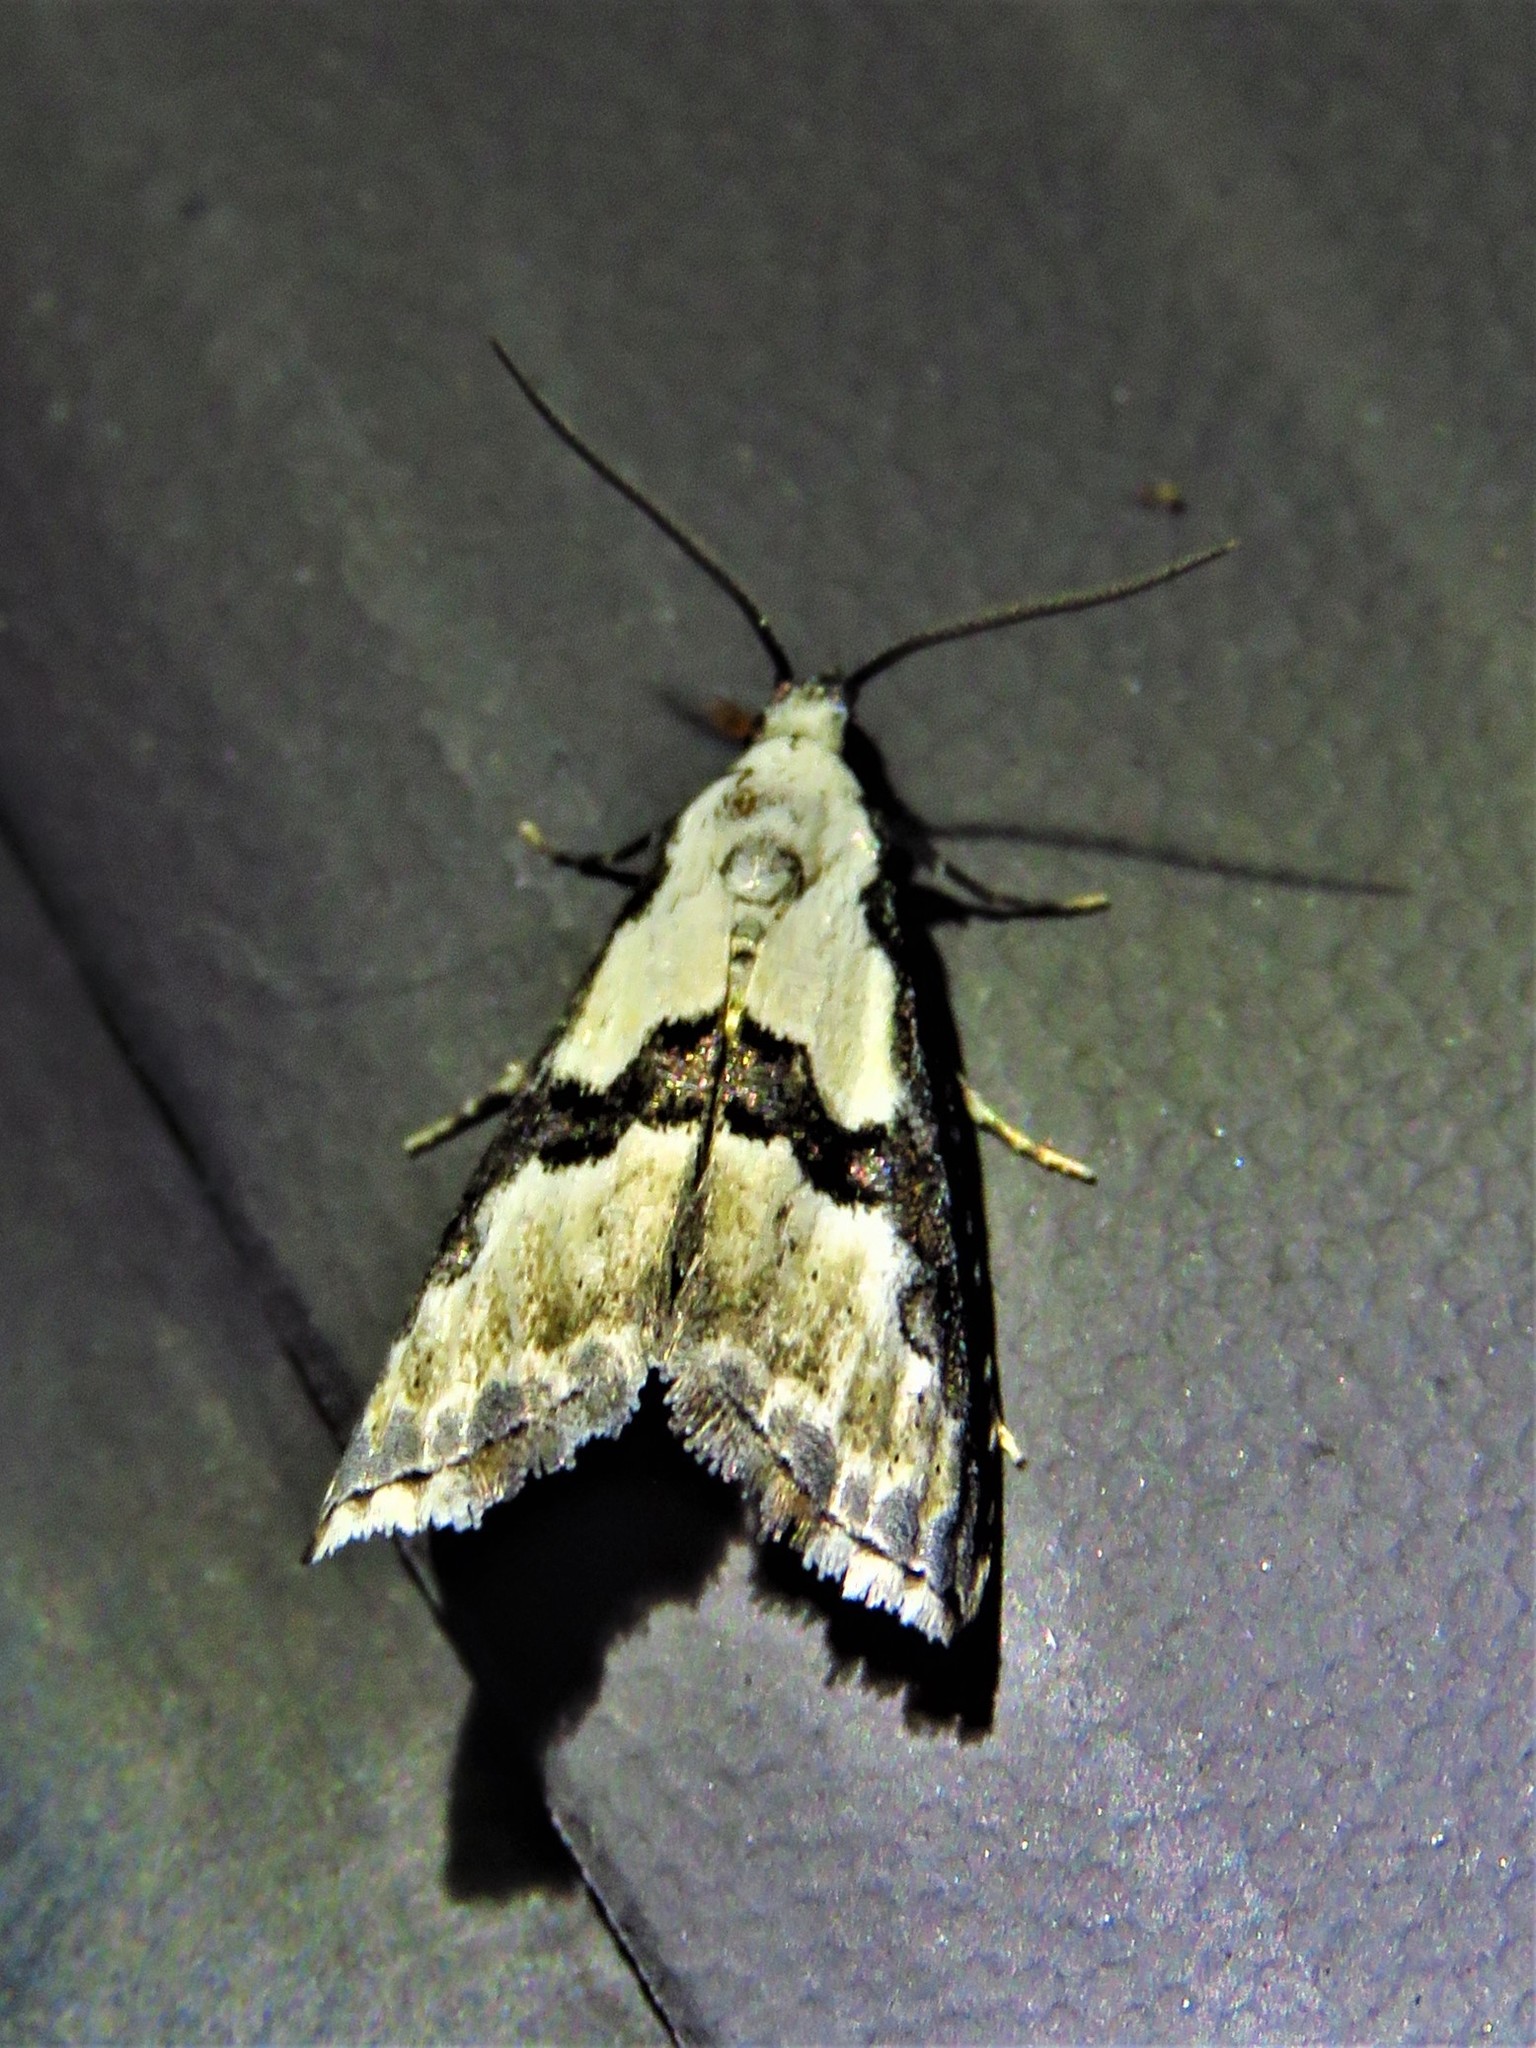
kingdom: Animalia
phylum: Arthropoda
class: Insecta
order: Lepidoptera
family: Noctuidae
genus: Nigetia
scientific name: Nigetia formosalis
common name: Thin-winged owlet
